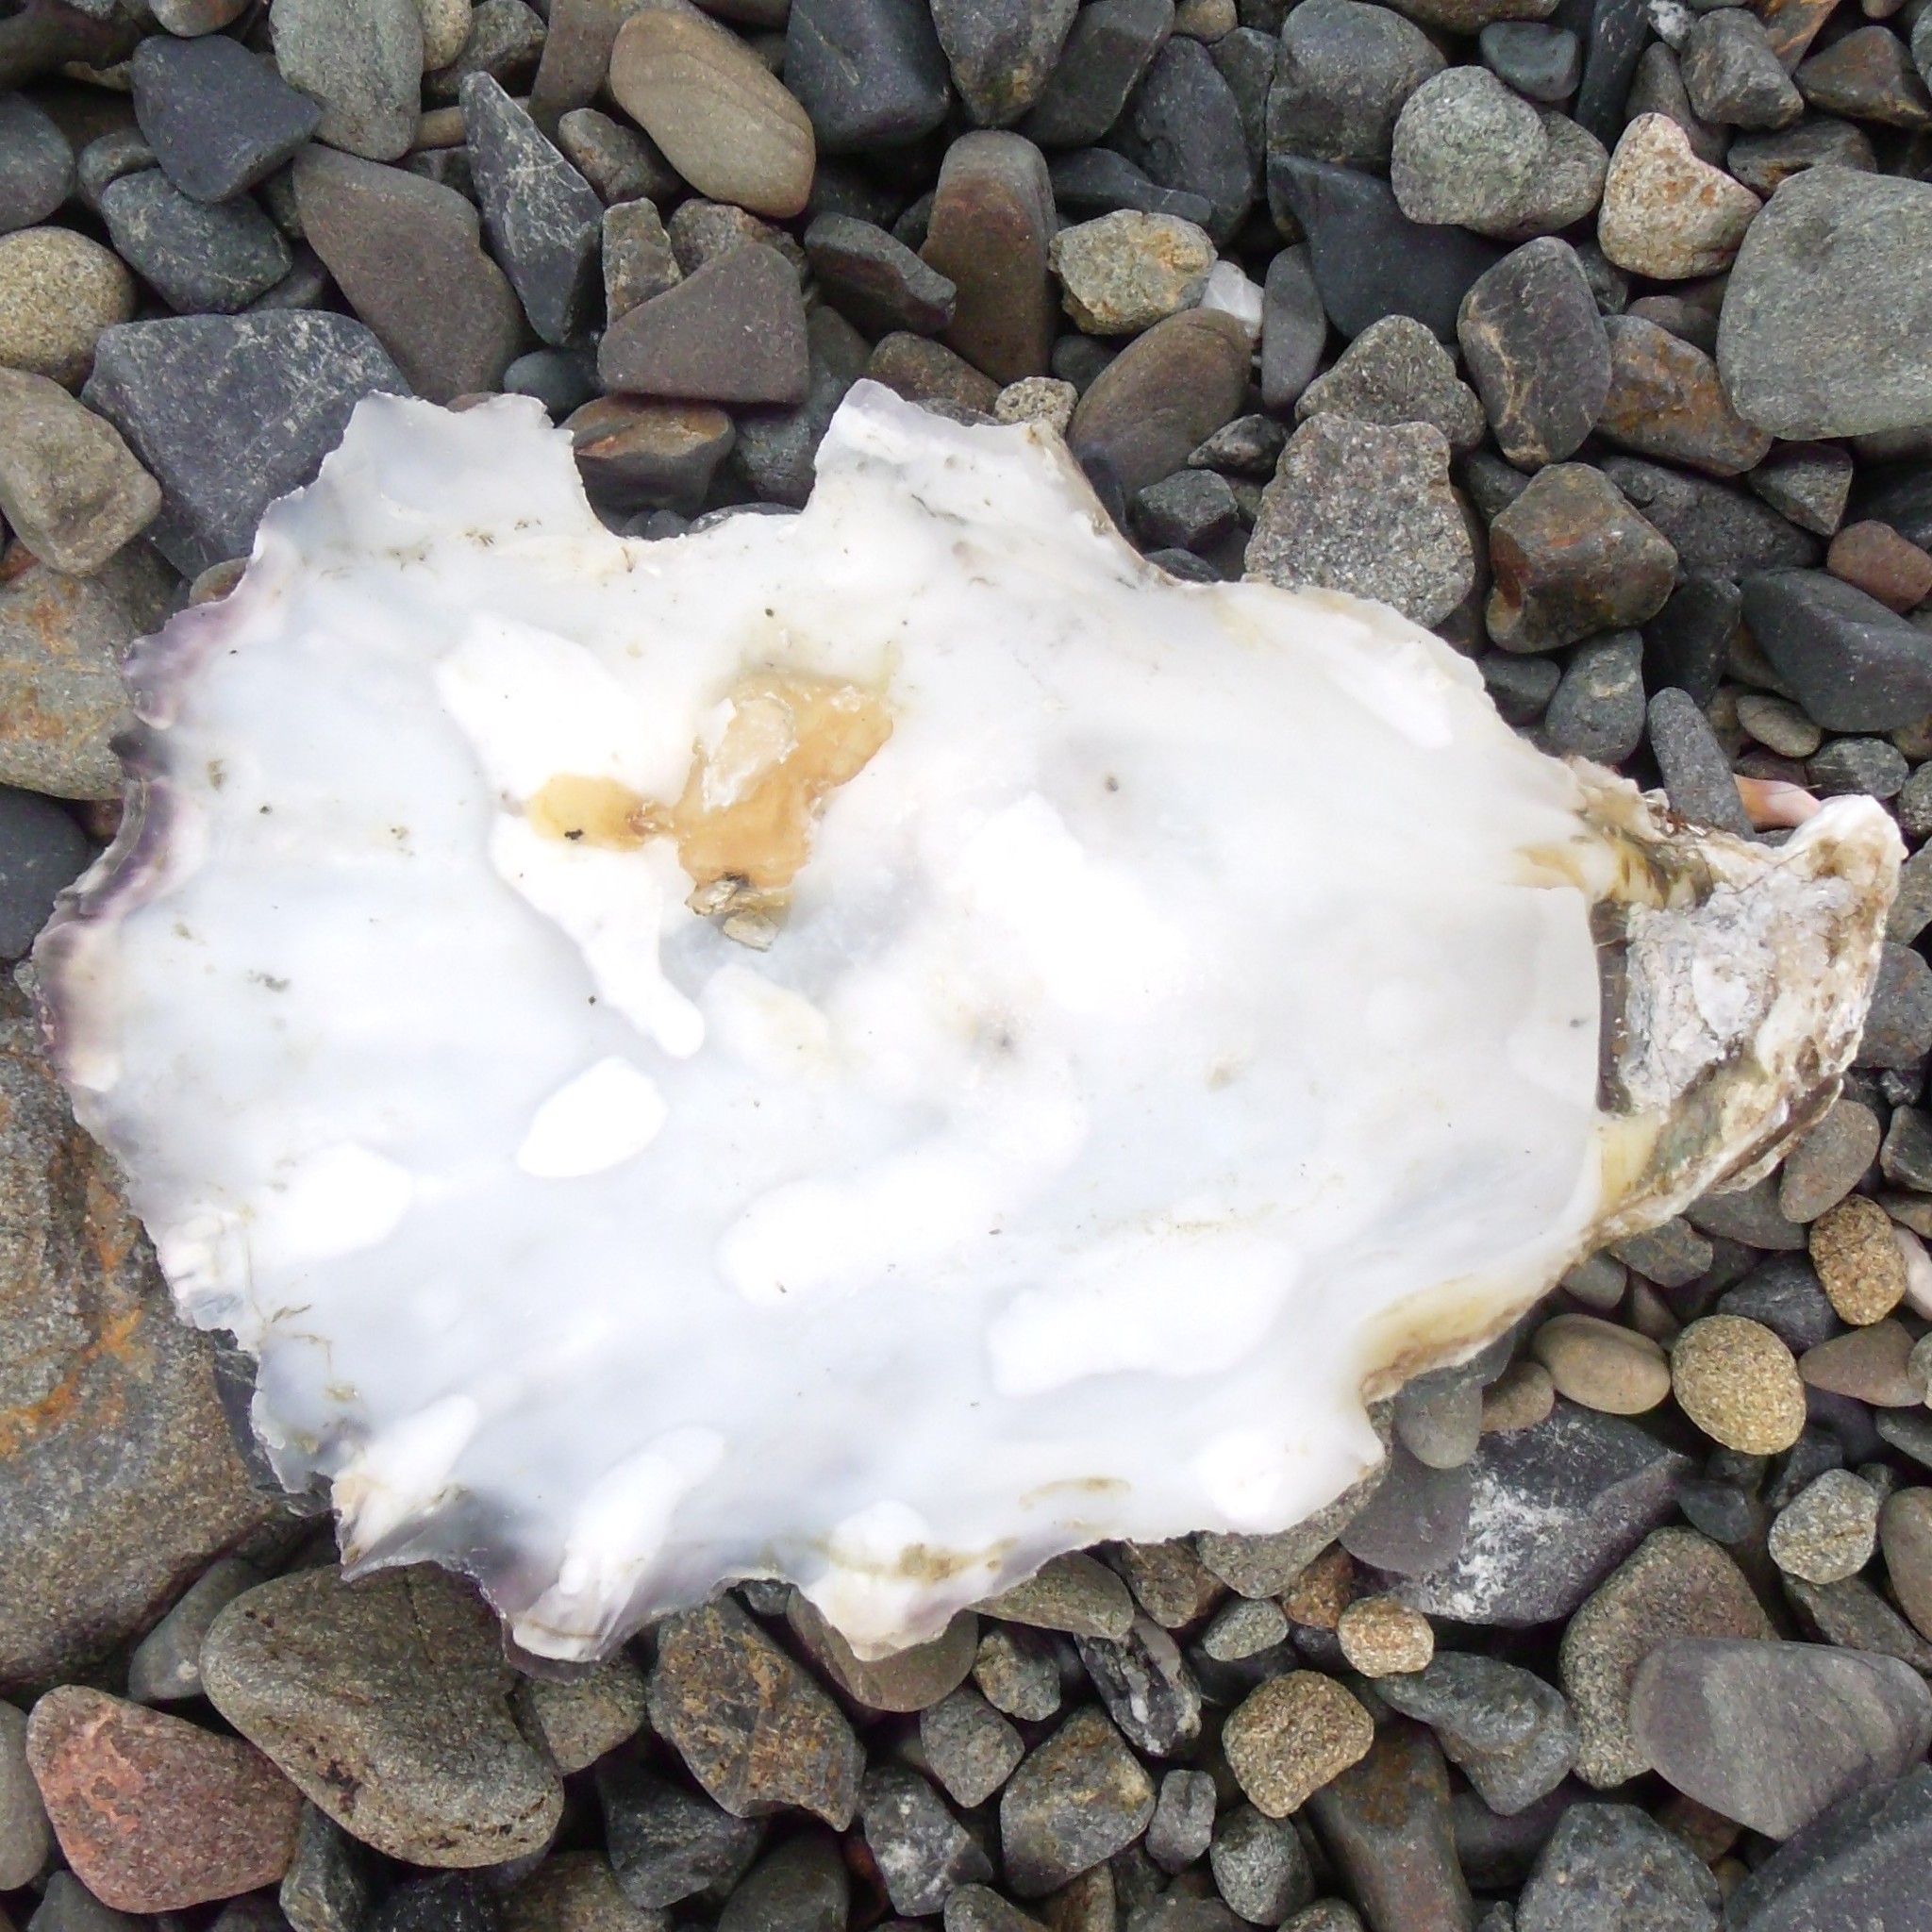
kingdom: Animalia
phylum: Mollusca
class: Bivalvia
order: Ostreida
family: Ostreidae
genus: Magallana
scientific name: Magallana gigas
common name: Pacific oyster
